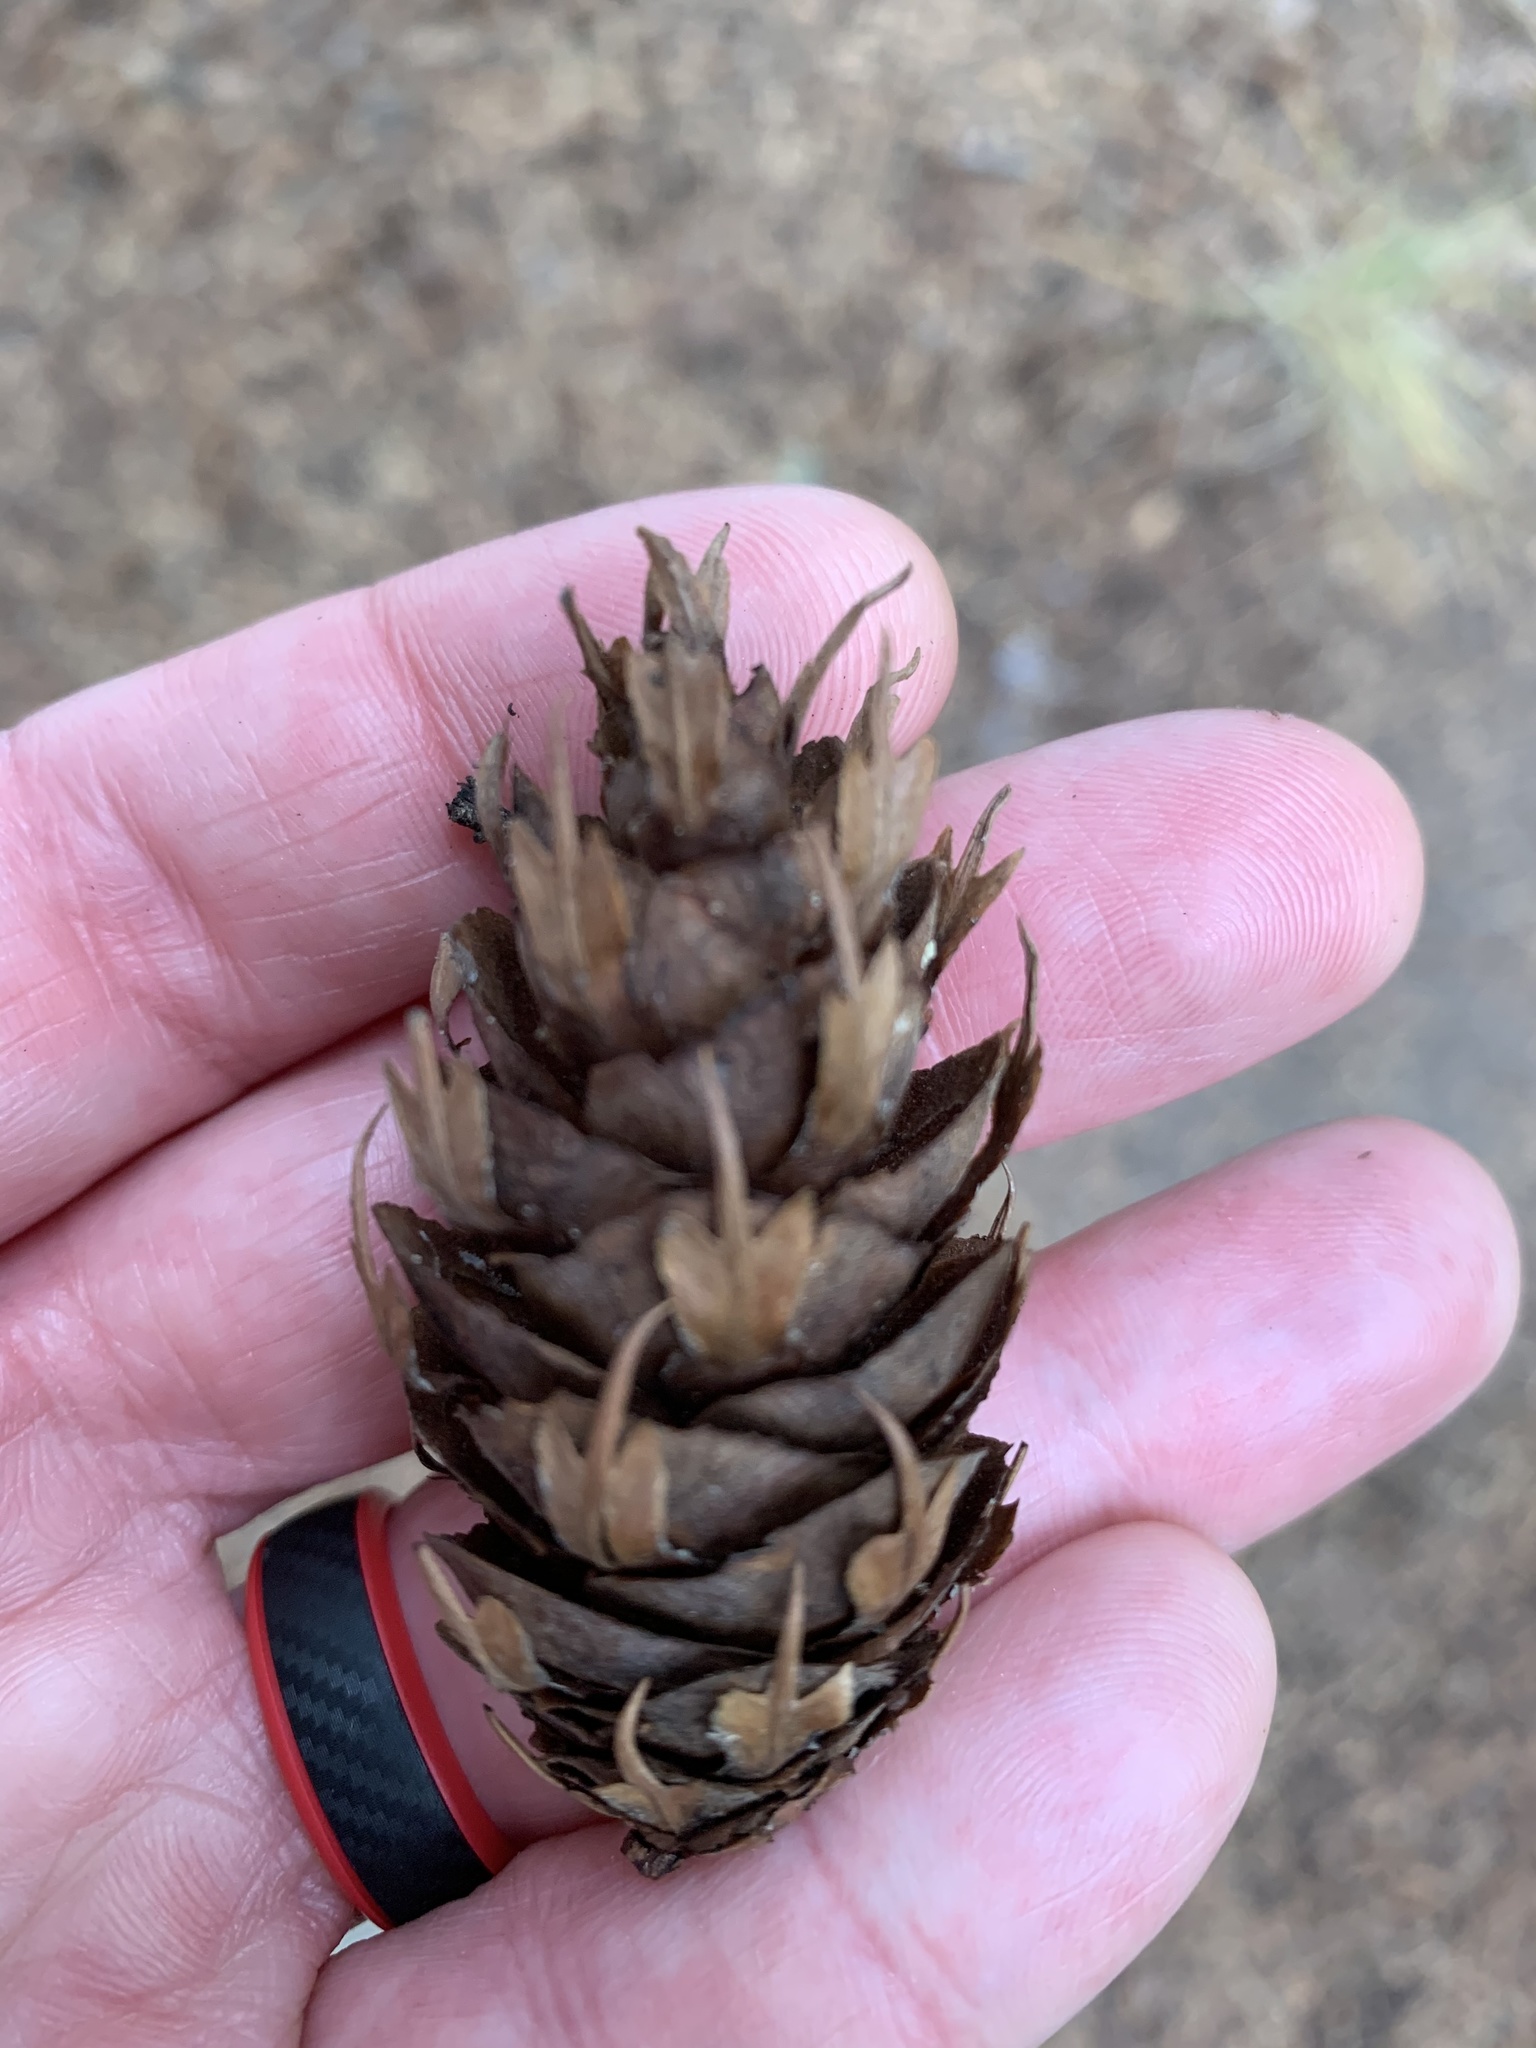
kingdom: Plantae
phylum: Tracheophyta
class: Pinopsida
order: Pinales
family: Pinaceae
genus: Pseudotsuga
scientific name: Pseudotsuga menziesii
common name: Douglas fir
